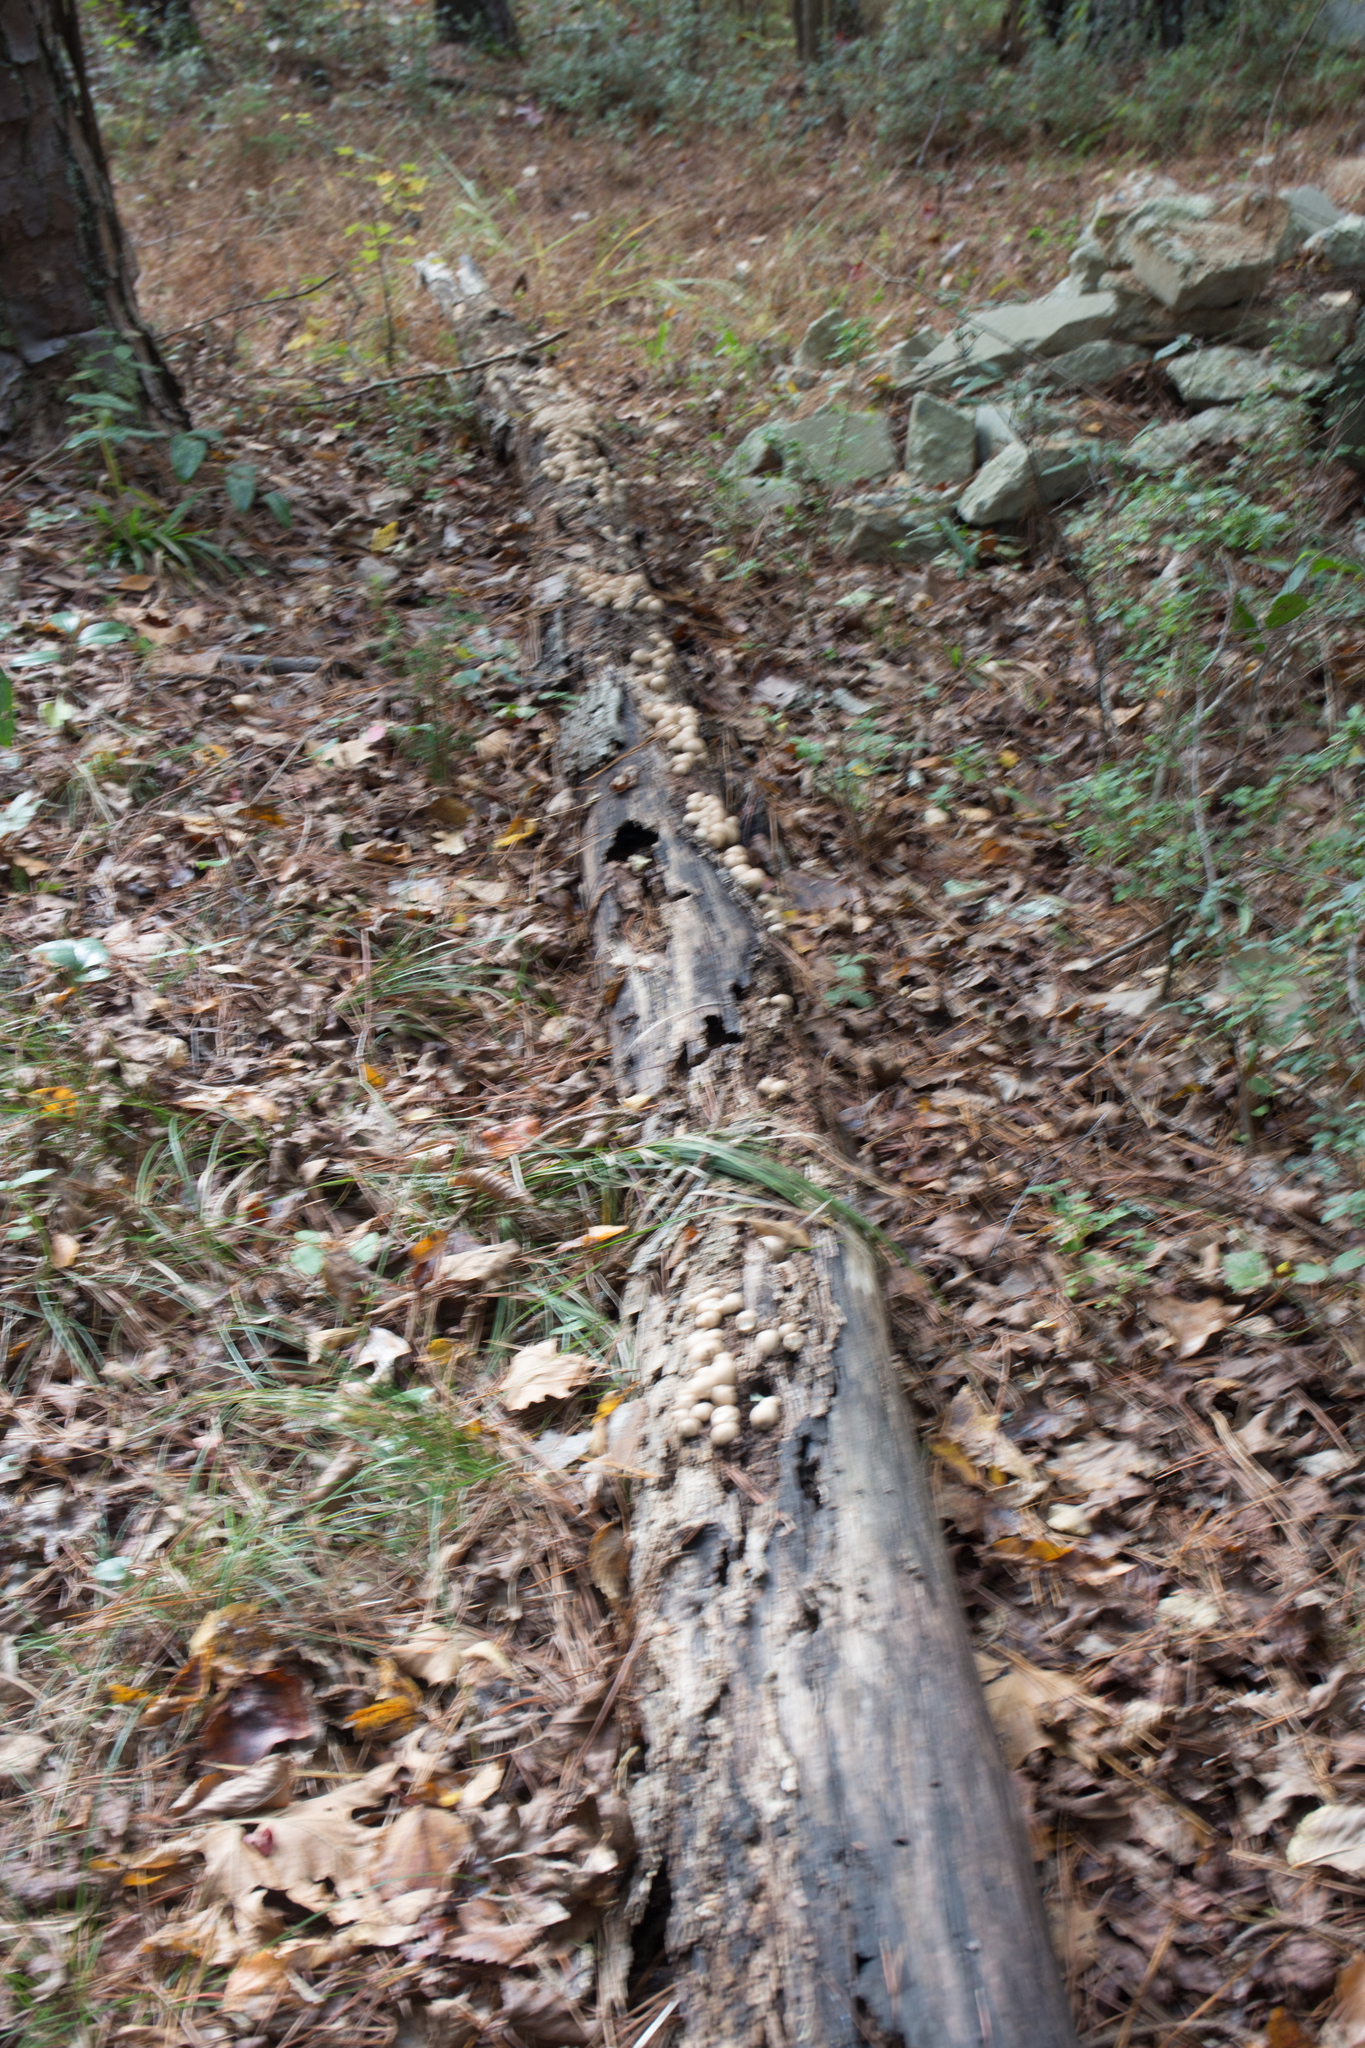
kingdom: Fungi
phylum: Basidiomycota
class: Agaricomycetes
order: Agaricales
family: Lycoperdaceae
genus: Apioperdon
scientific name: Apioperdon pyriforme
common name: Pear-shaped puffball
